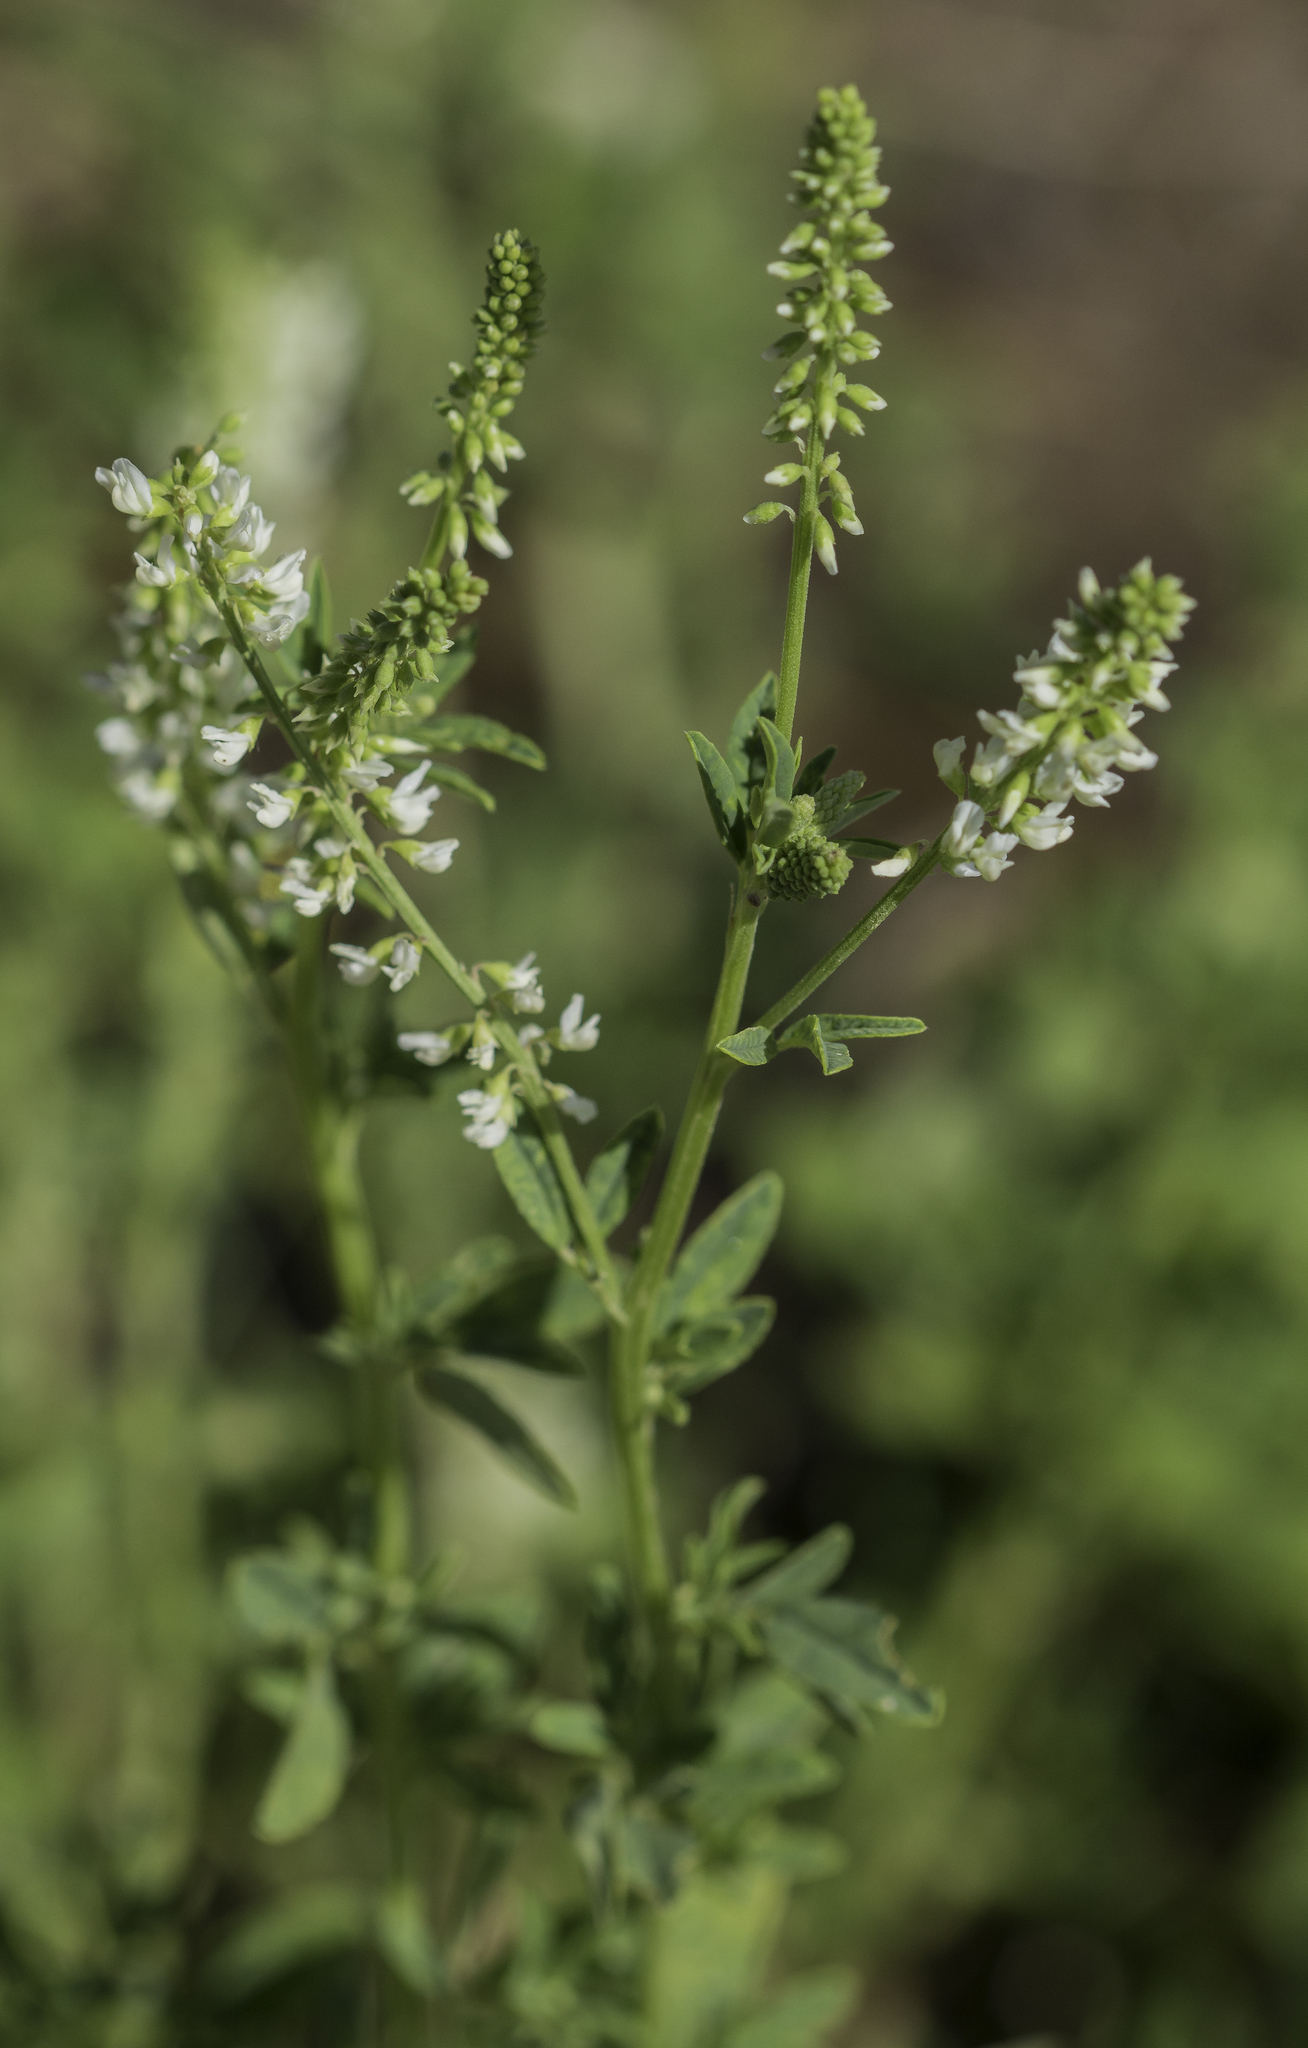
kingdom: Plantae
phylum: Tracheophyta
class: Magnoliopsida
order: Fabales
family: Fabaceae
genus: Melilotus
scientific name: Melilotus albus
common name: White melilot
